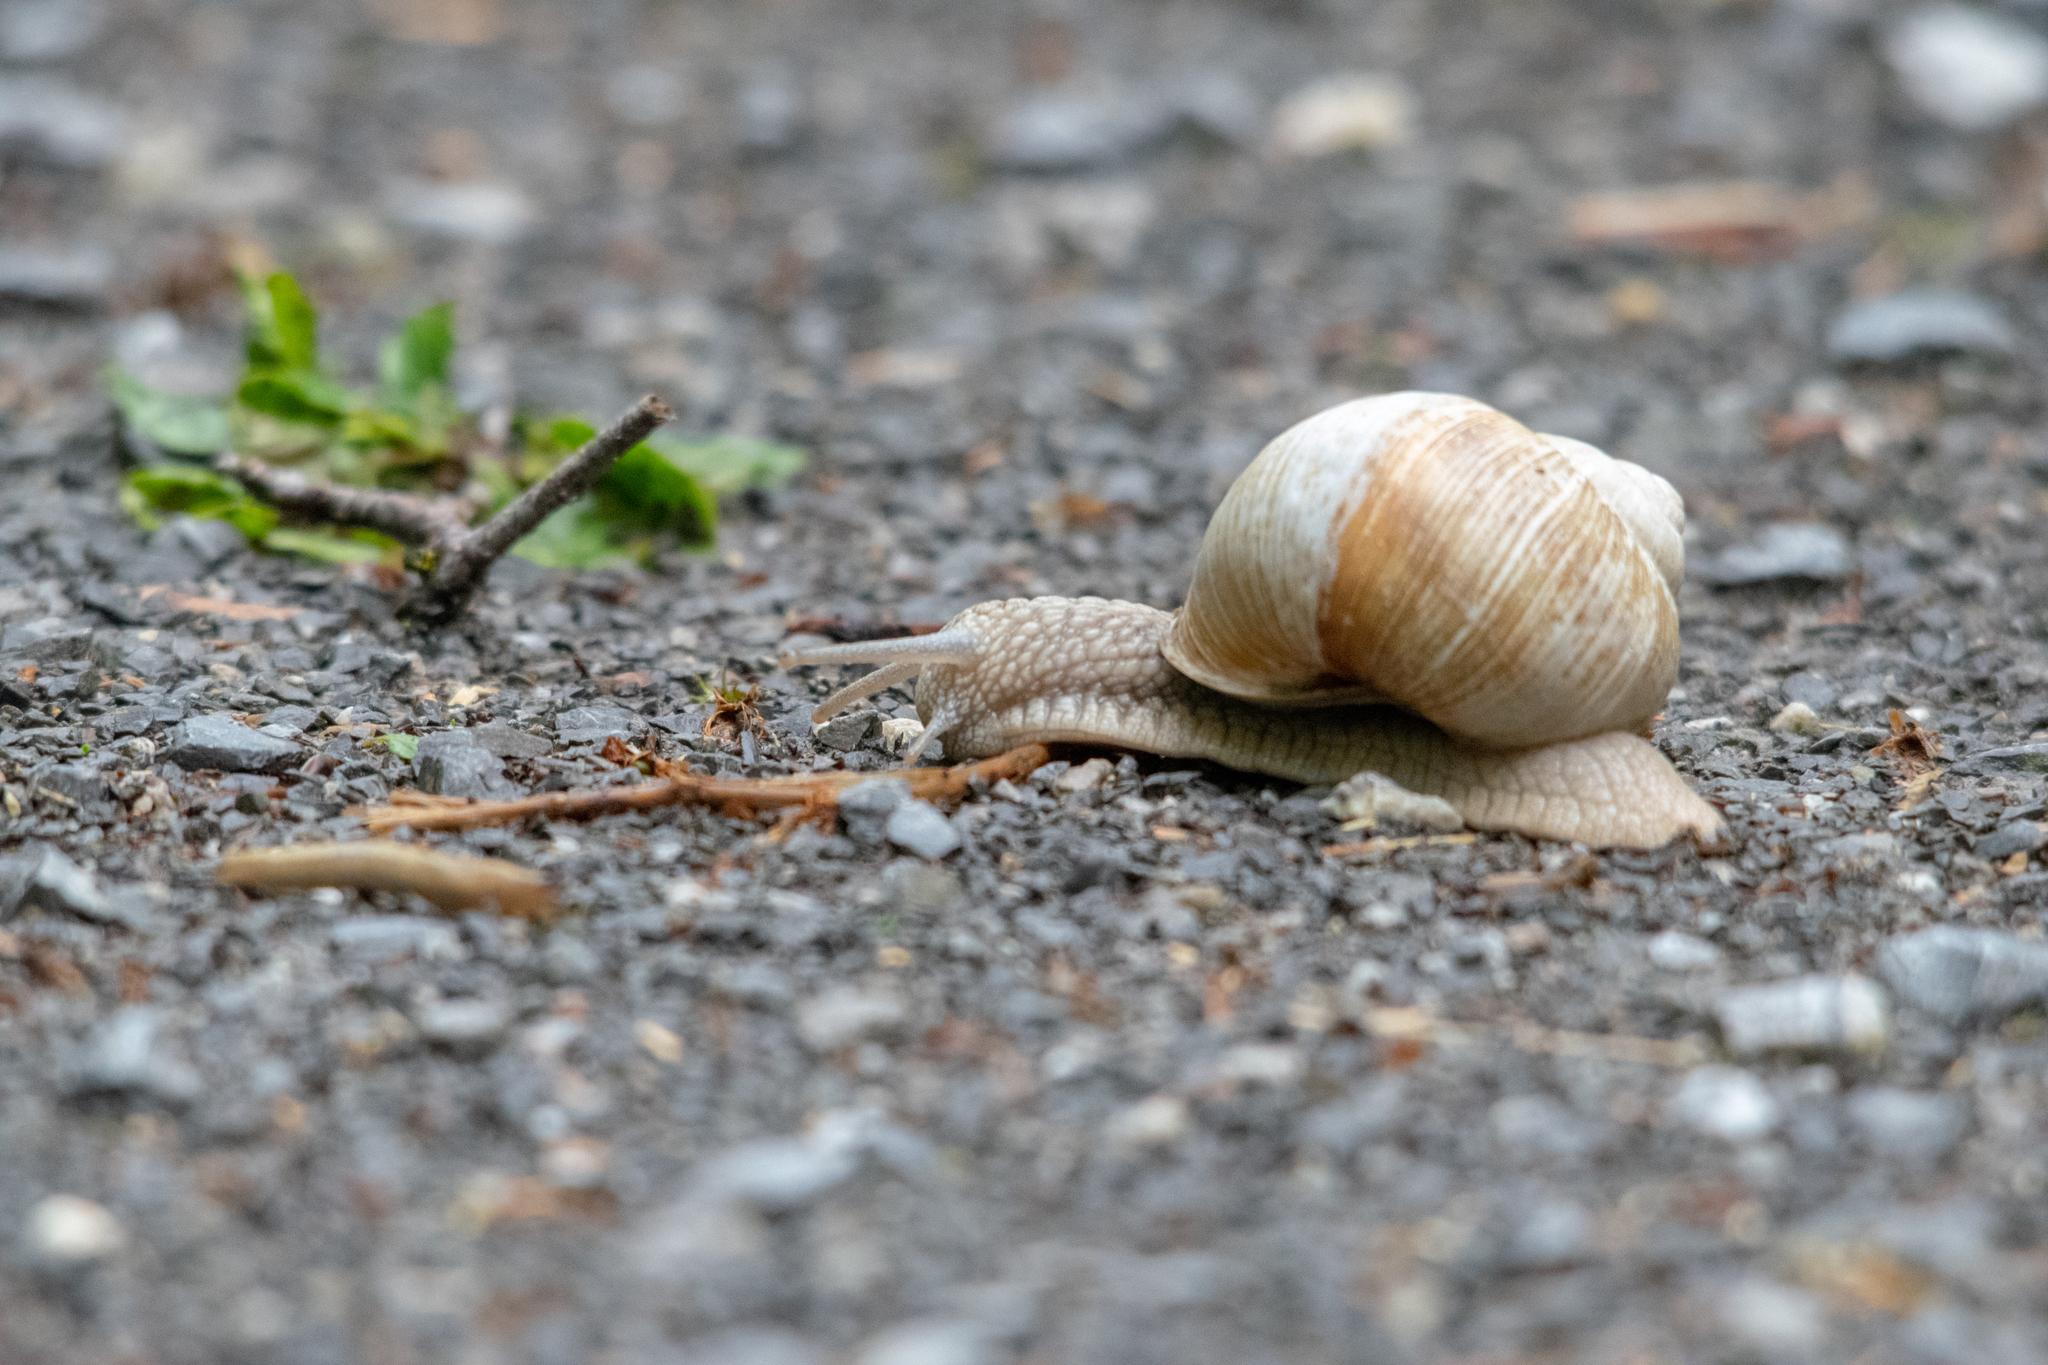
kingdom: Animalia
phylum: Mollusca
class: Gastropoda
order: Stylommatophora
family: Helicidae
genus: Helix
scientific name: Helix pomatia
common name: Roman snail
